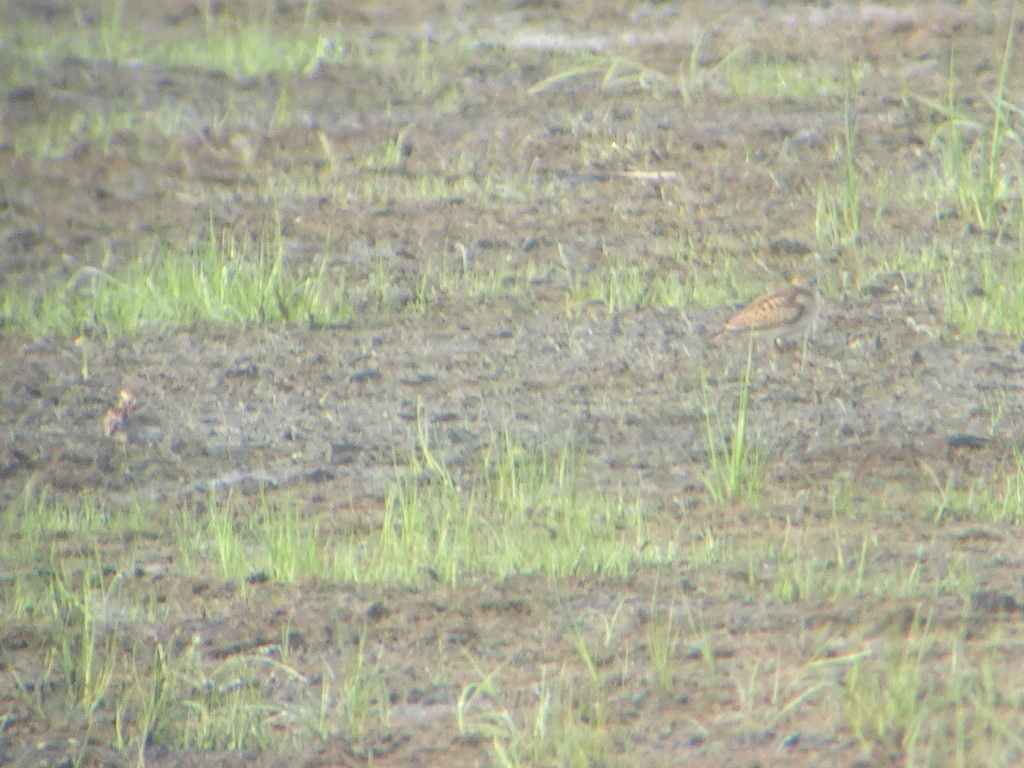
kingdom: Animalia
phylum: Chordata
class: Aves
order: Charadriiformes
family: Scolopacidae
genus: Calidris
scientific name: Calidris minutilla
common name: Least sandpiper
